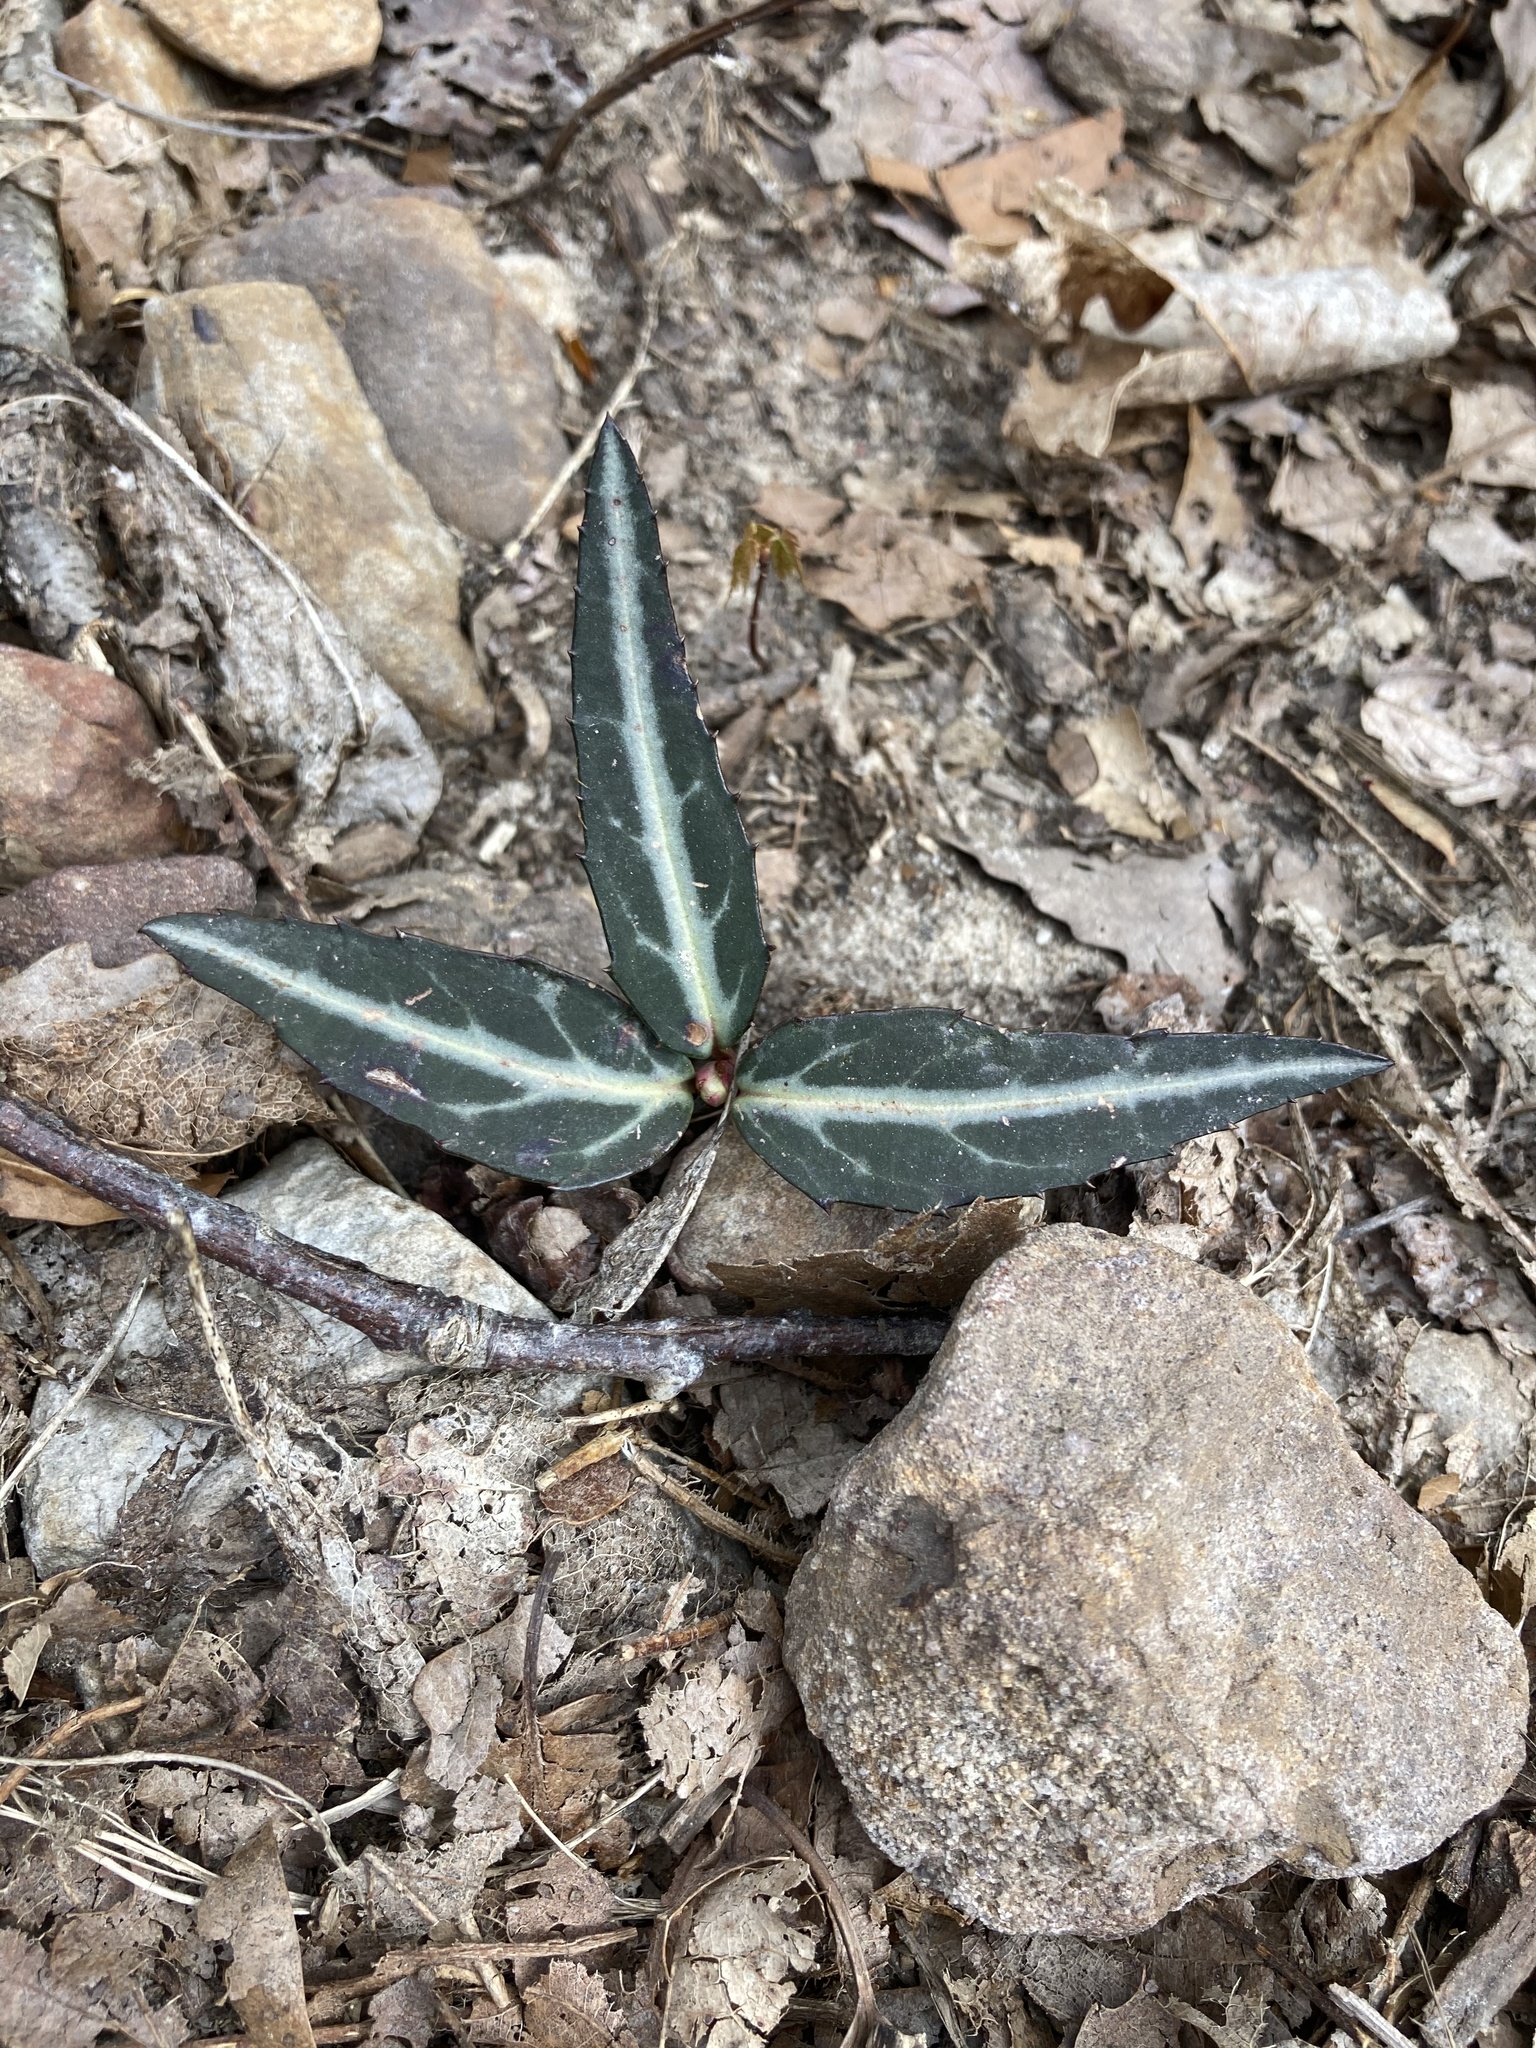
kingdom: Plantae
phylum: Tracheophyta
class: Magnoliopsida
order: Ericales
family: Ericaceae
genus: Chimaphila
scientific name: Chimaphila maculata
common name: Spotted pipsissewa
